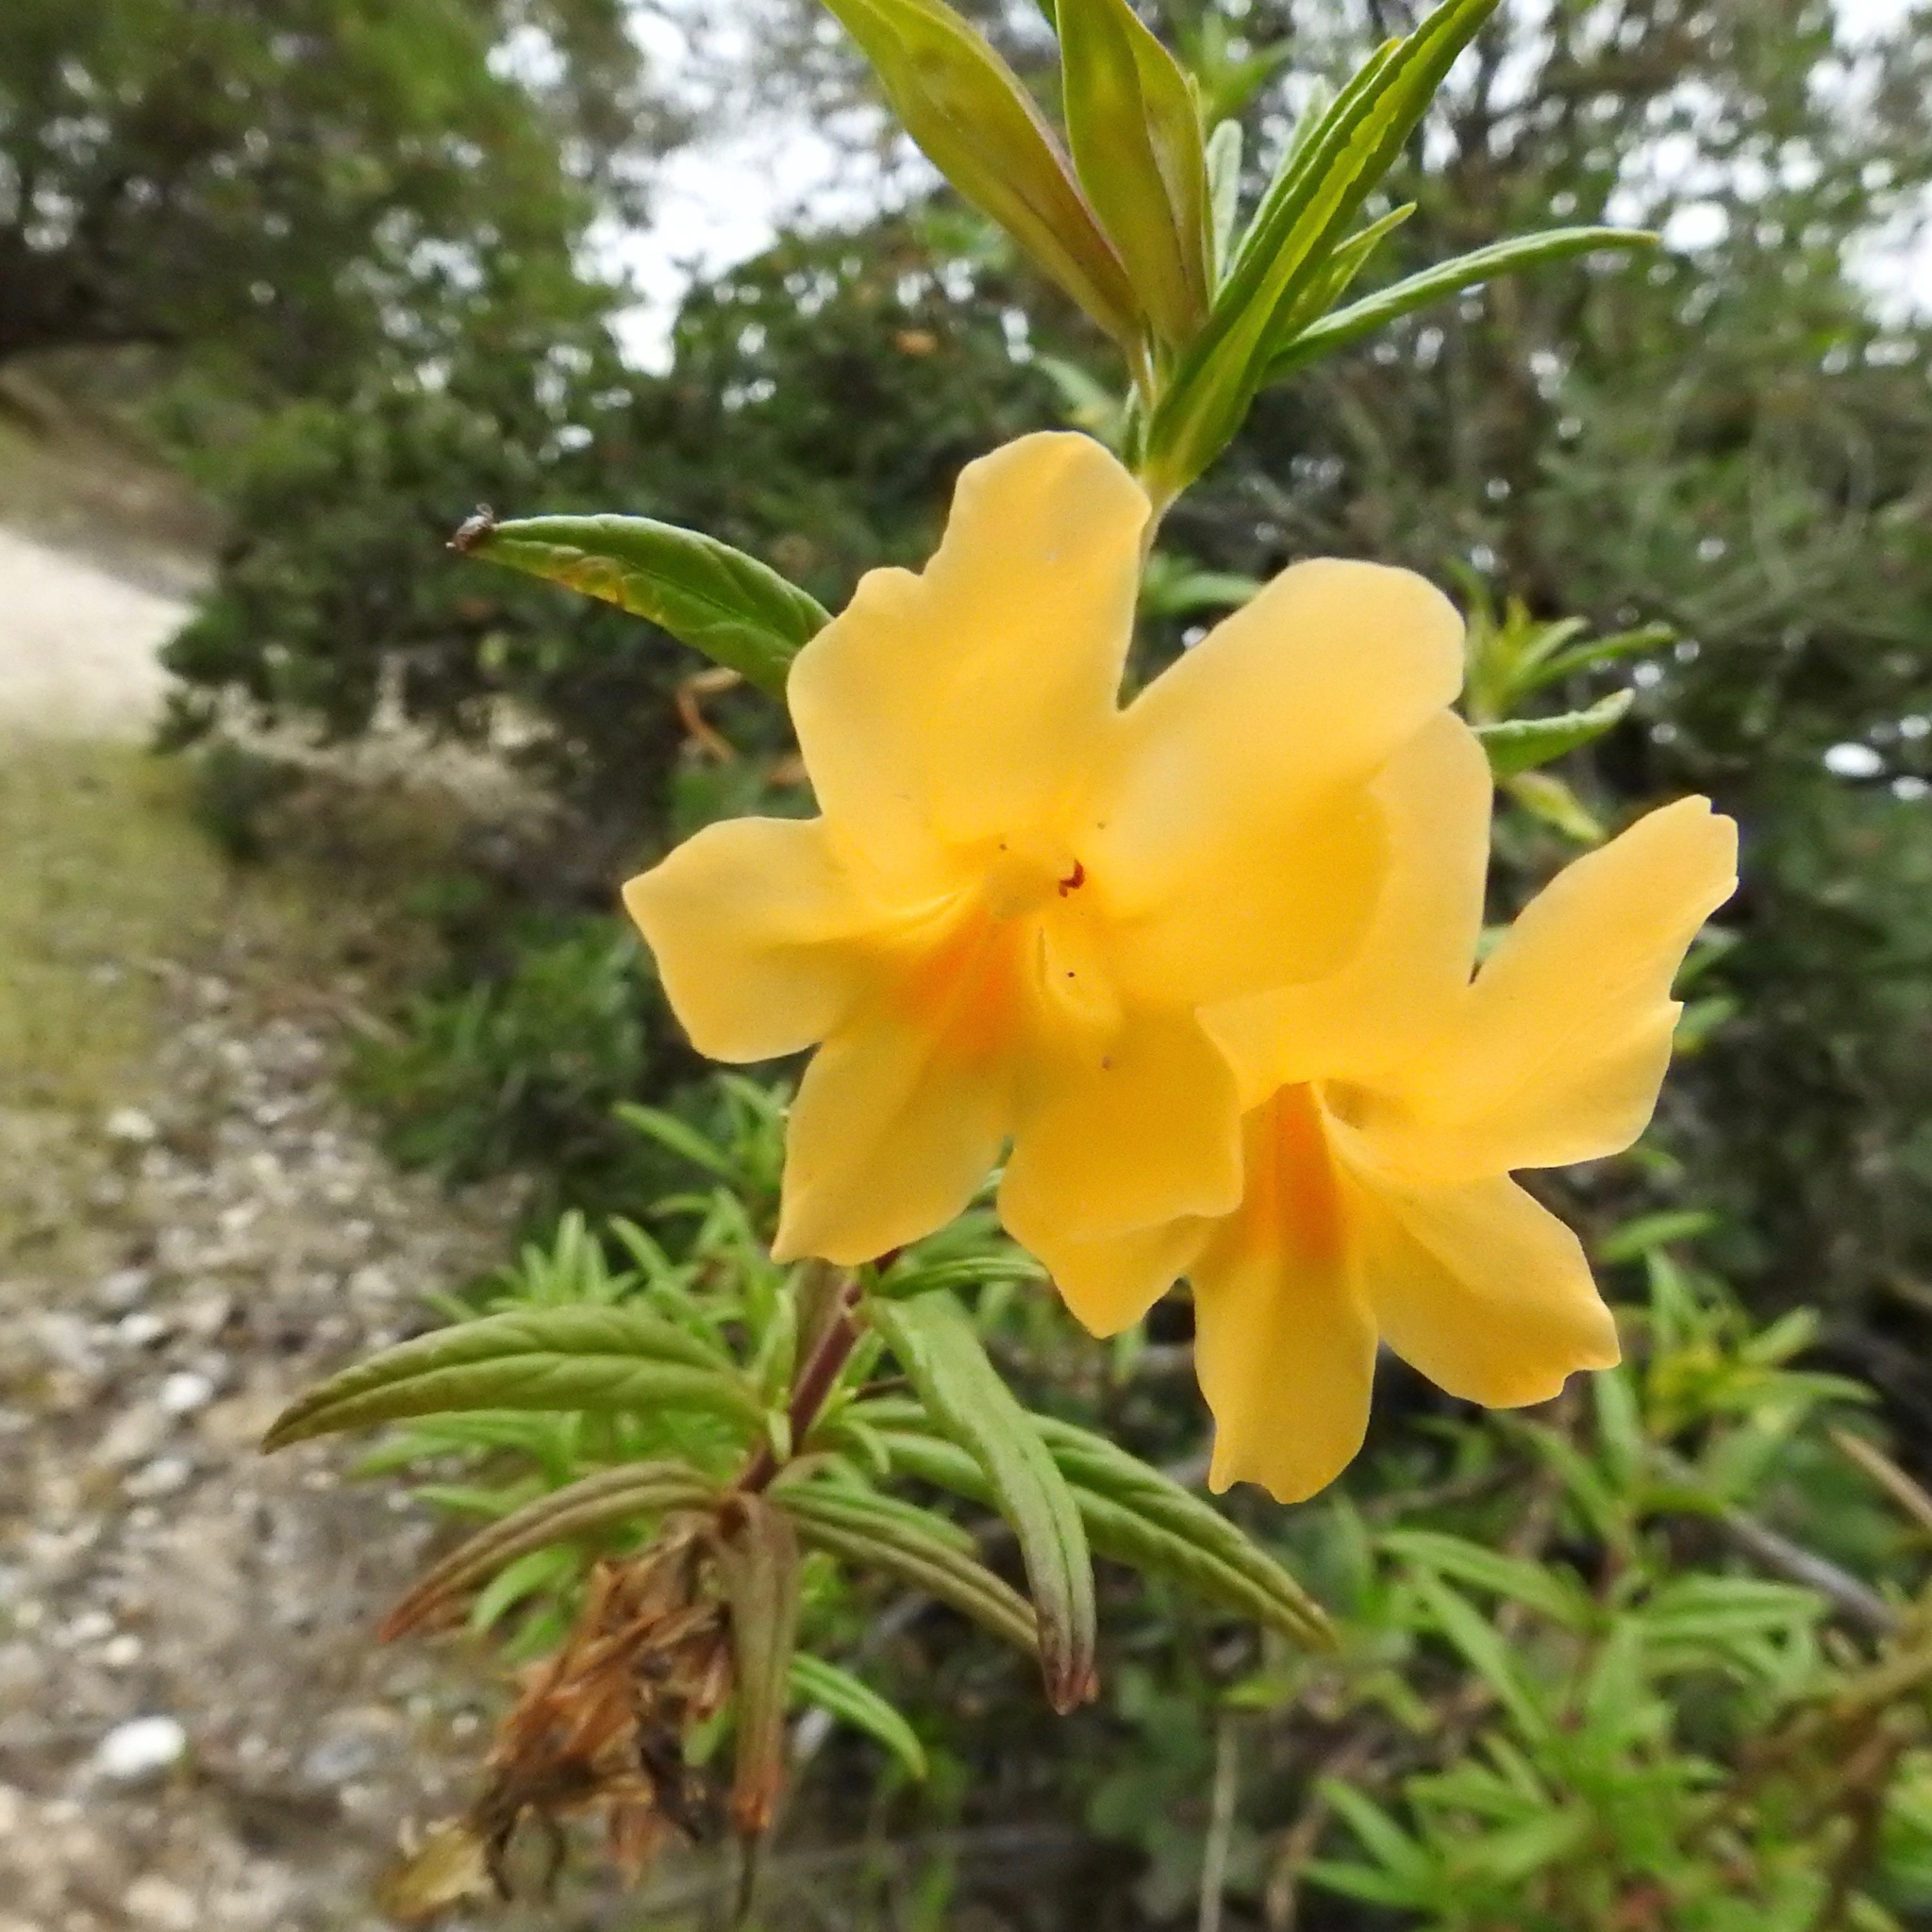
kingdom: Plantae
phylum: Tracheophyta
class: Magnoliopsida
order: Lamiales
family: Phrymaceae
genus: Diplacus
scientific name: Diplacus aurantiacus
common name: Bush monkey-flower
